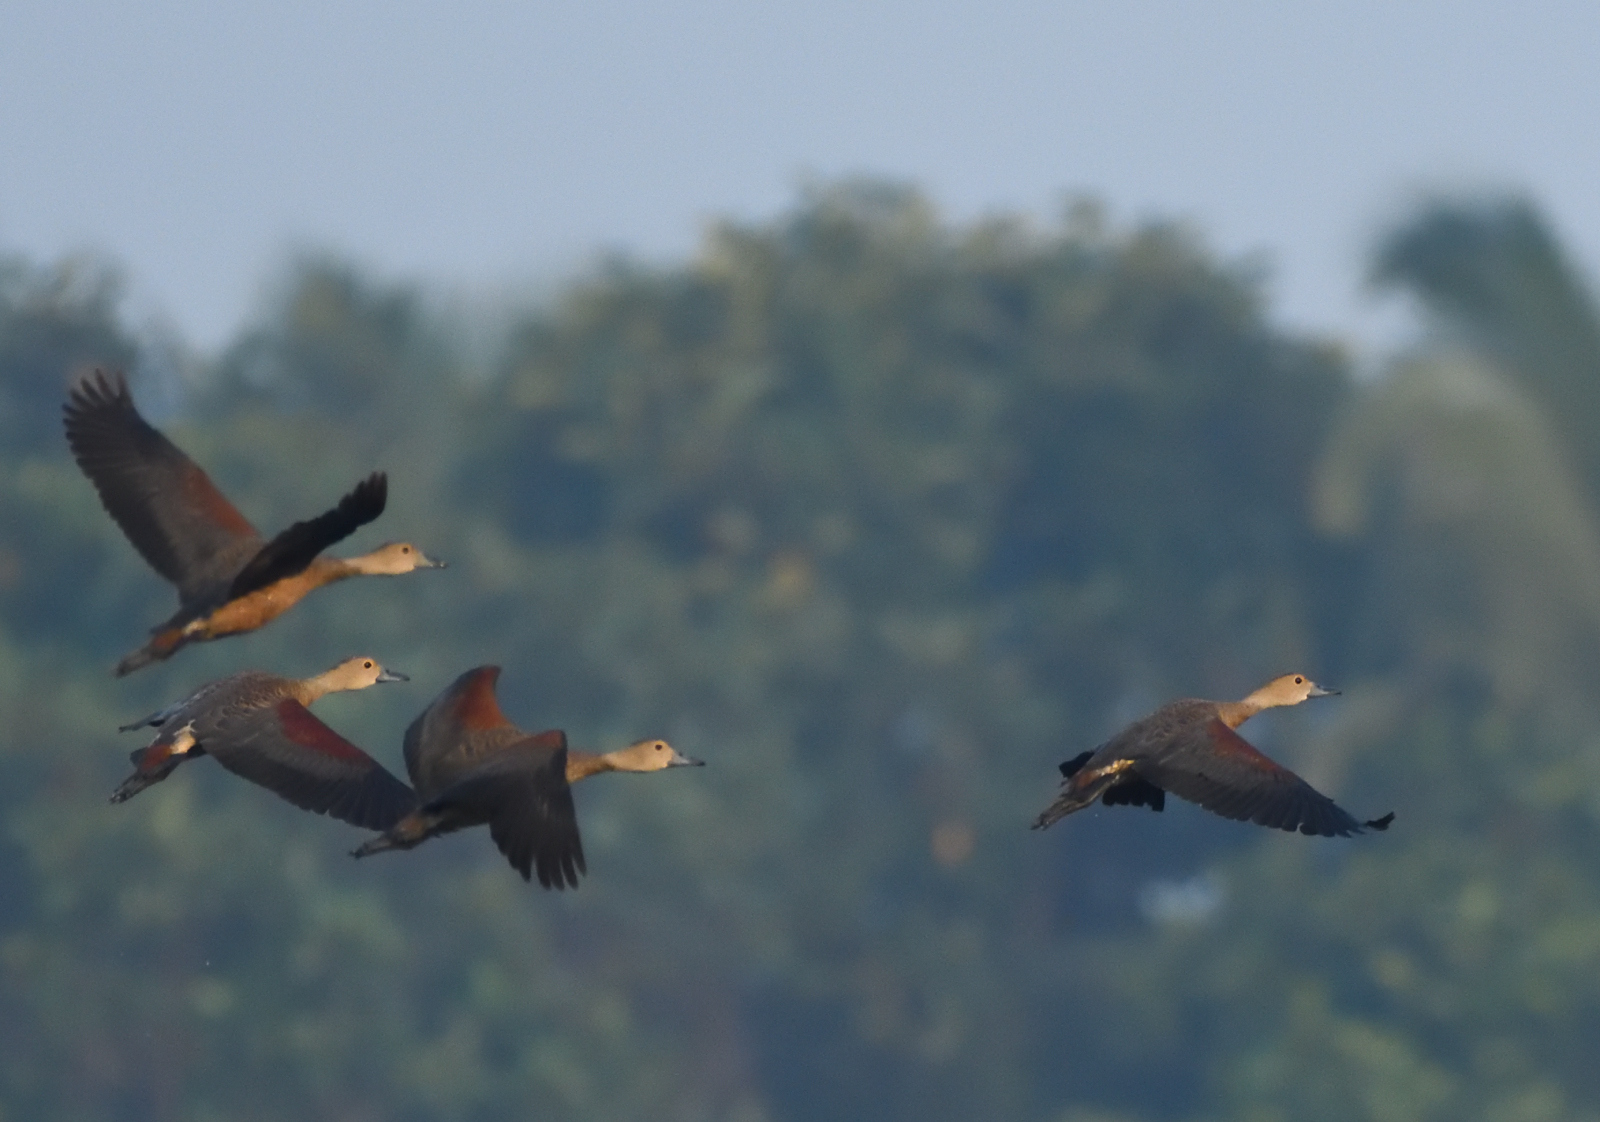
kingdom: Animalia
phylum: Chordata
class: Aves
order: Anseriformes
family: Anatidae
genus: Dendrocygna
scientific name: Dendrocygna javanica
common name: Lesser whistling-duck
